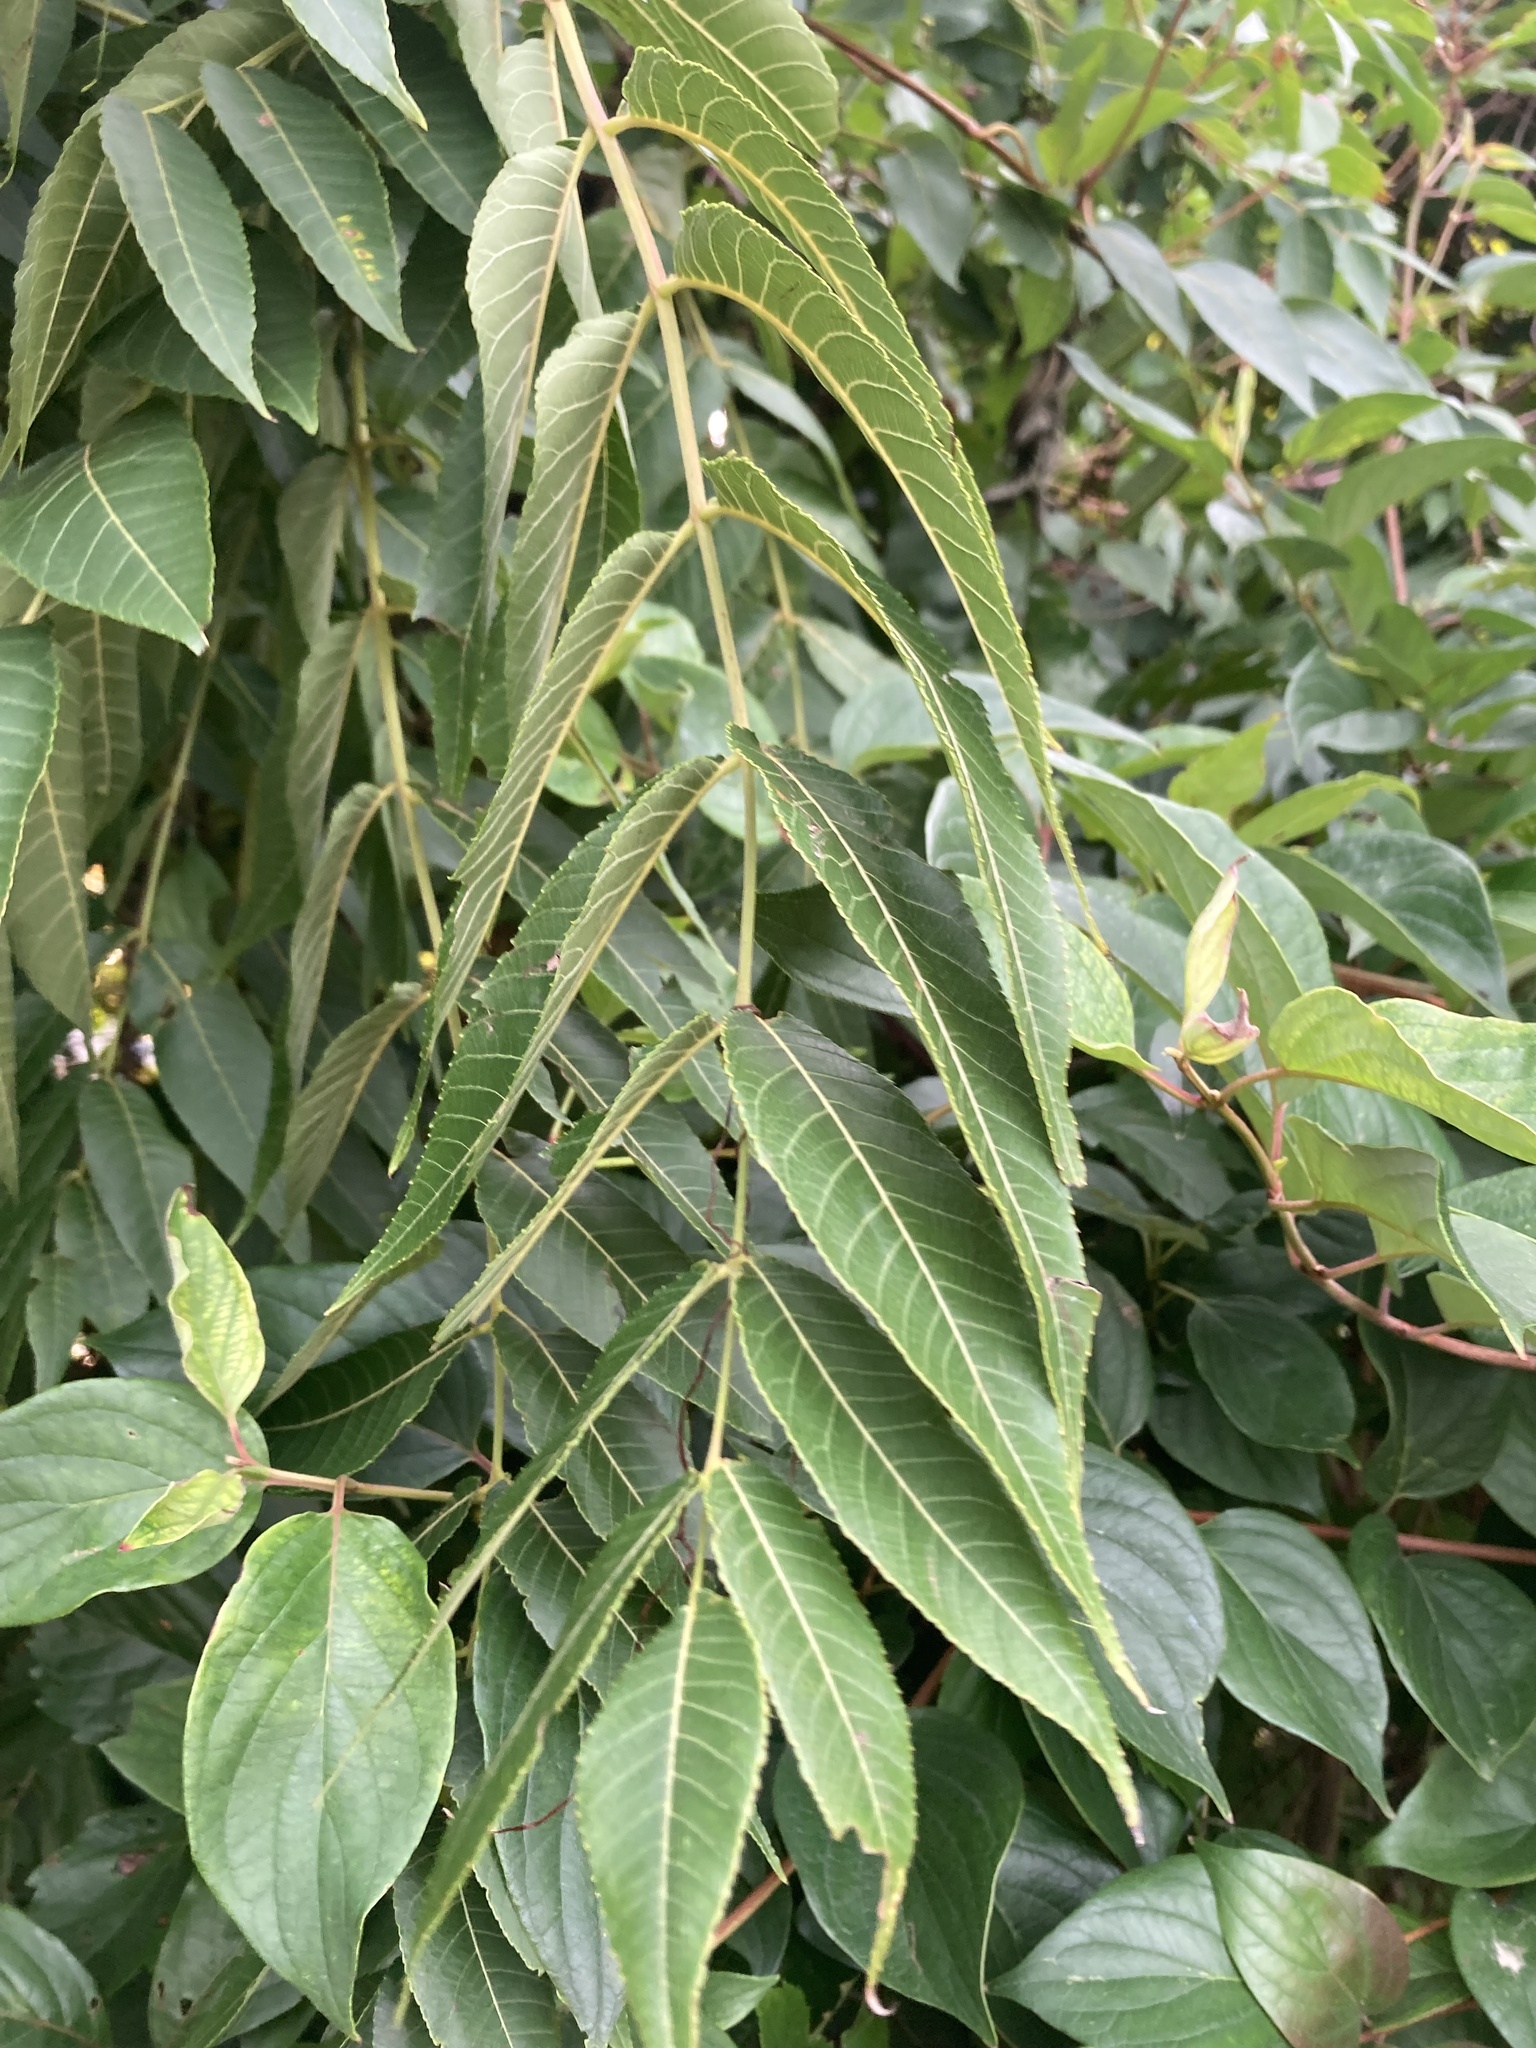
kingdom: Plantae
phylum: Tracheophyta
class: Magnoliopsida
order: Fagales
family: Juglandaceae
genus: Juglans
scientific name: Juglans nigra
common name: Black walnut
